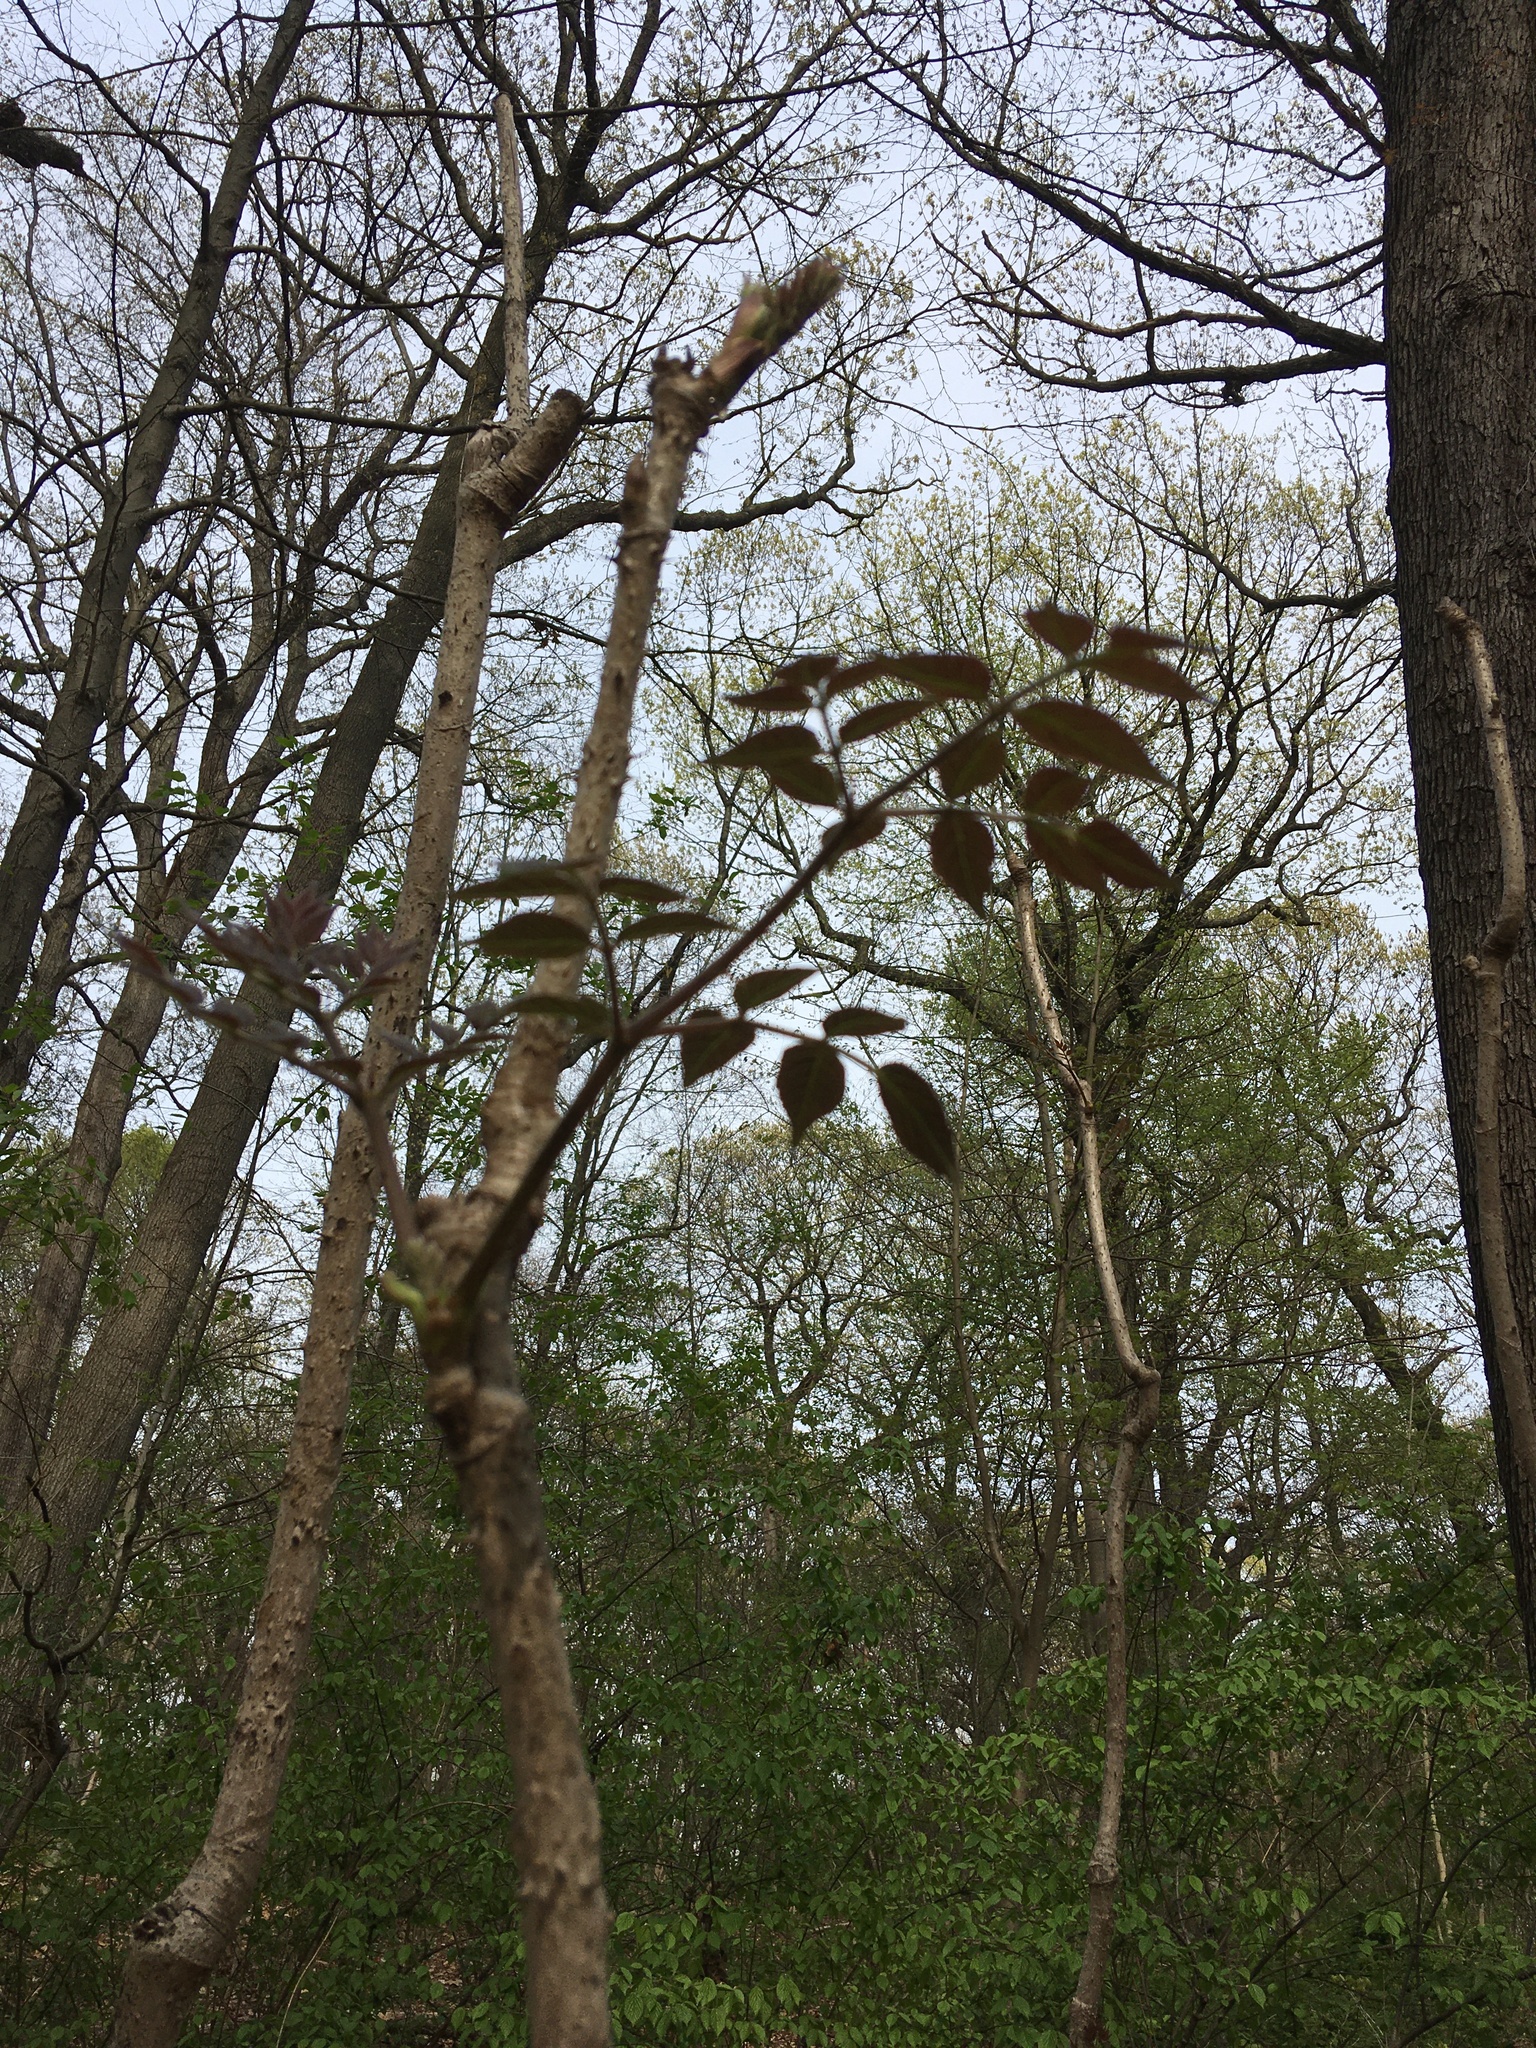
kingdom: Plantae
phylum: Tracheophyta
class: Magnoliopsida
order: Apiales
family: Araliaceae
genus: Aralia
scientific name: Aralia elata
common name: Japanese angelica-tree
